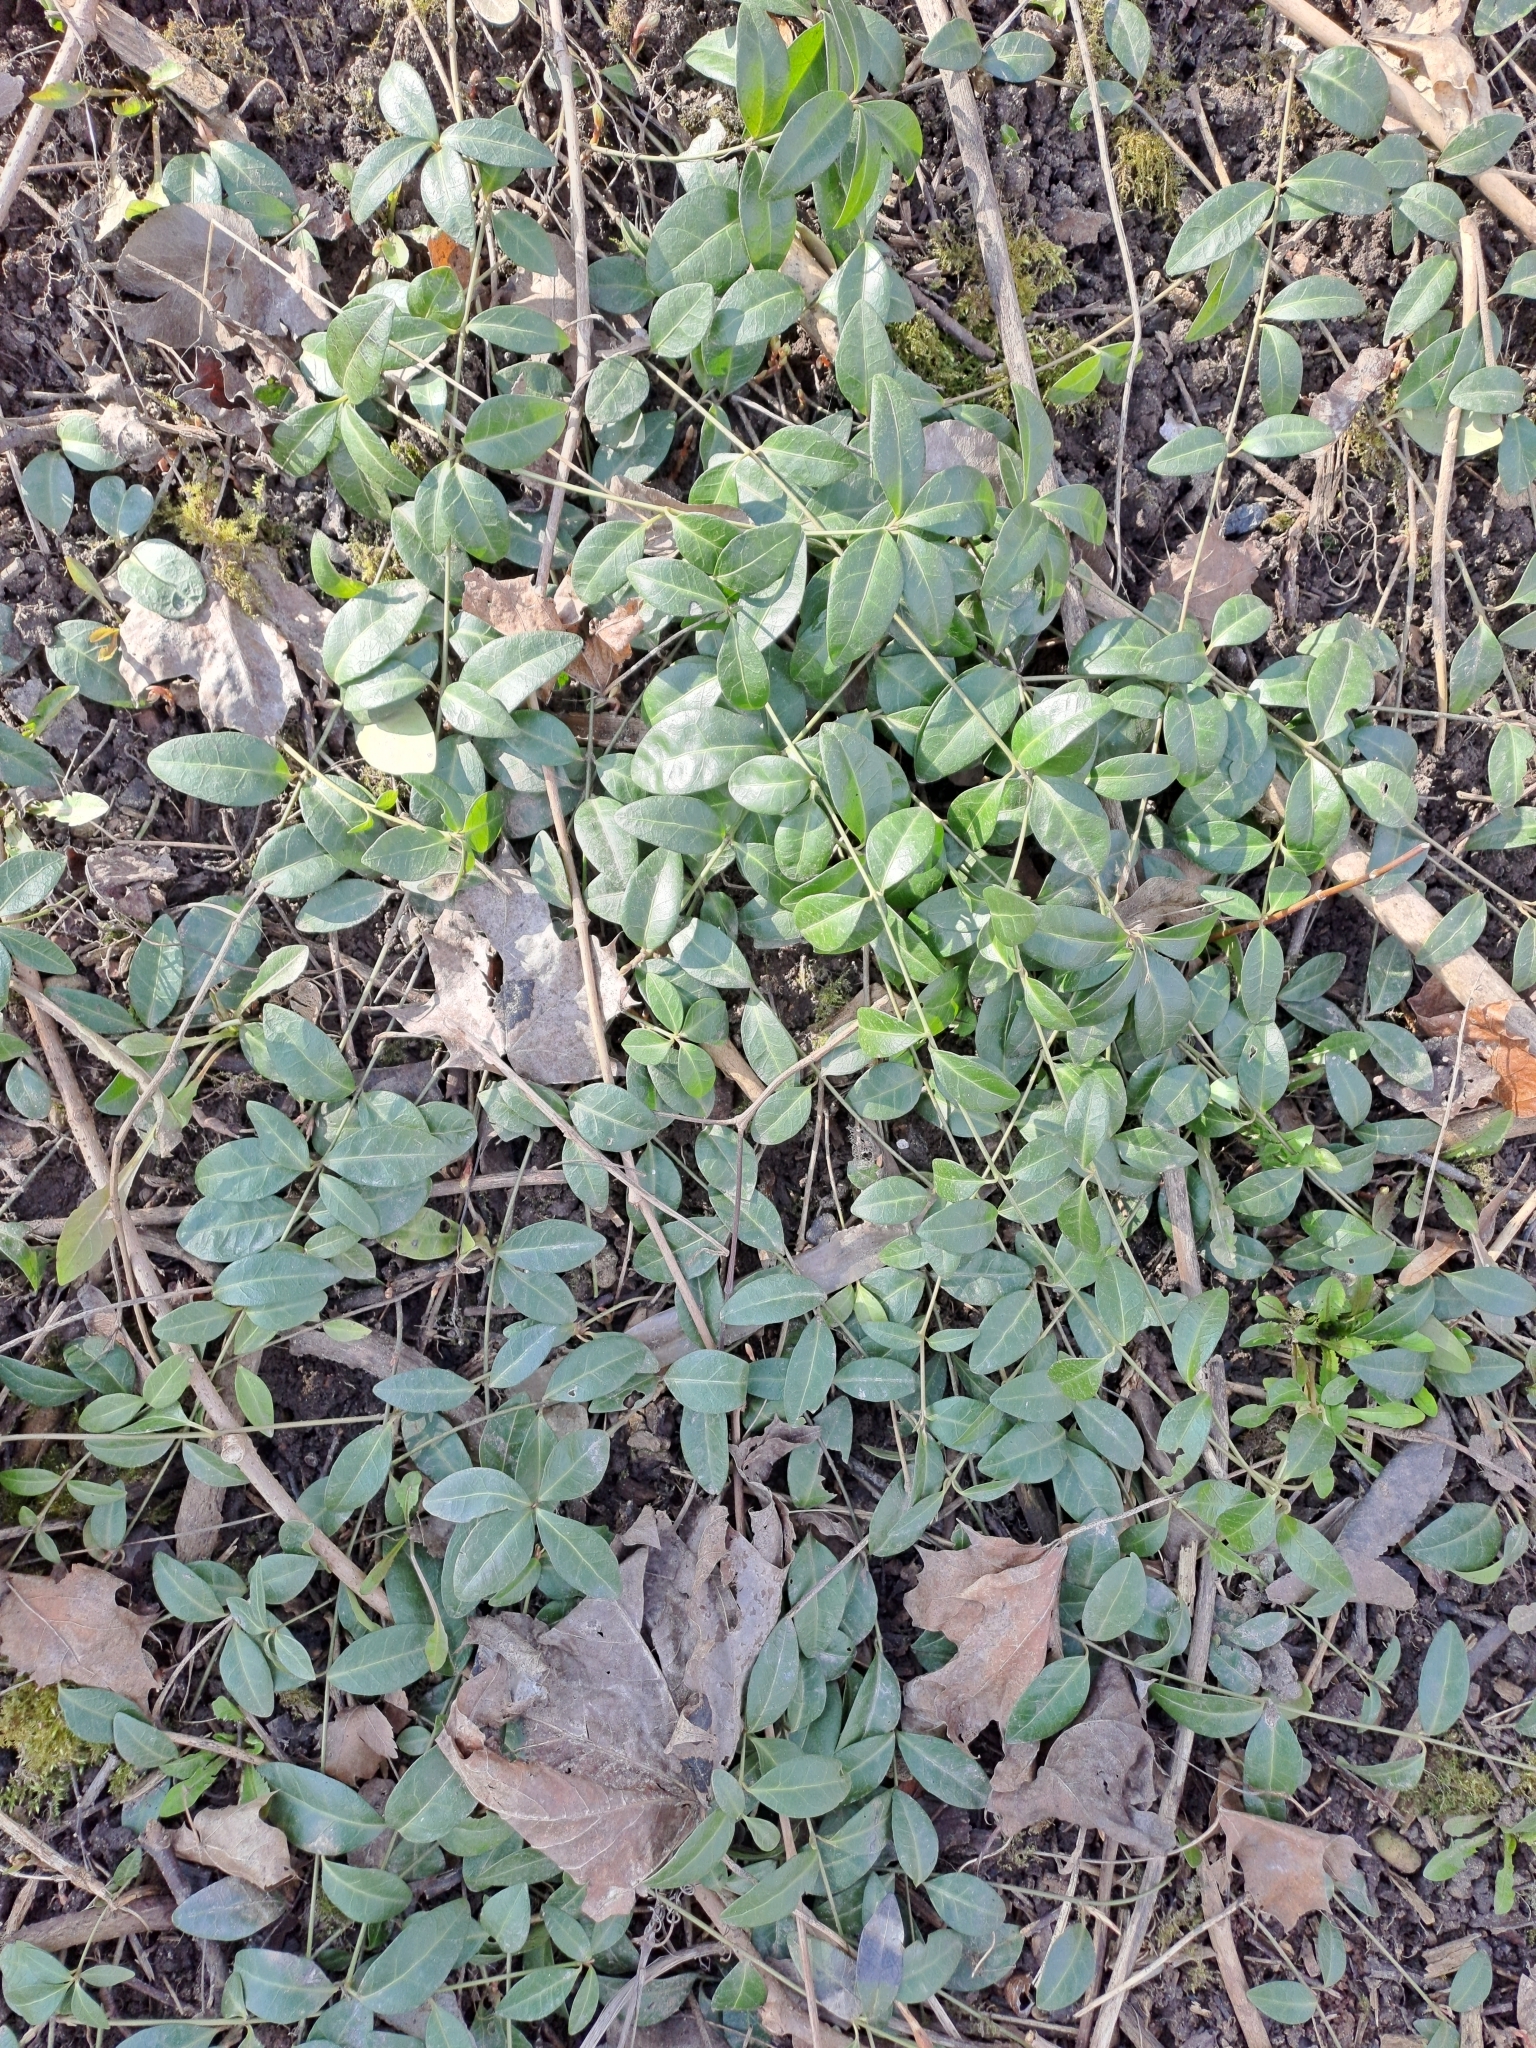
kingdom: Plantae
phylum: Tracheophyta
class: Magnoliopsida
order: Gentianales
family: Apocynaceae
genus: Vinca
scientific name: Vinca minor
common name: Lesser periwinkle
